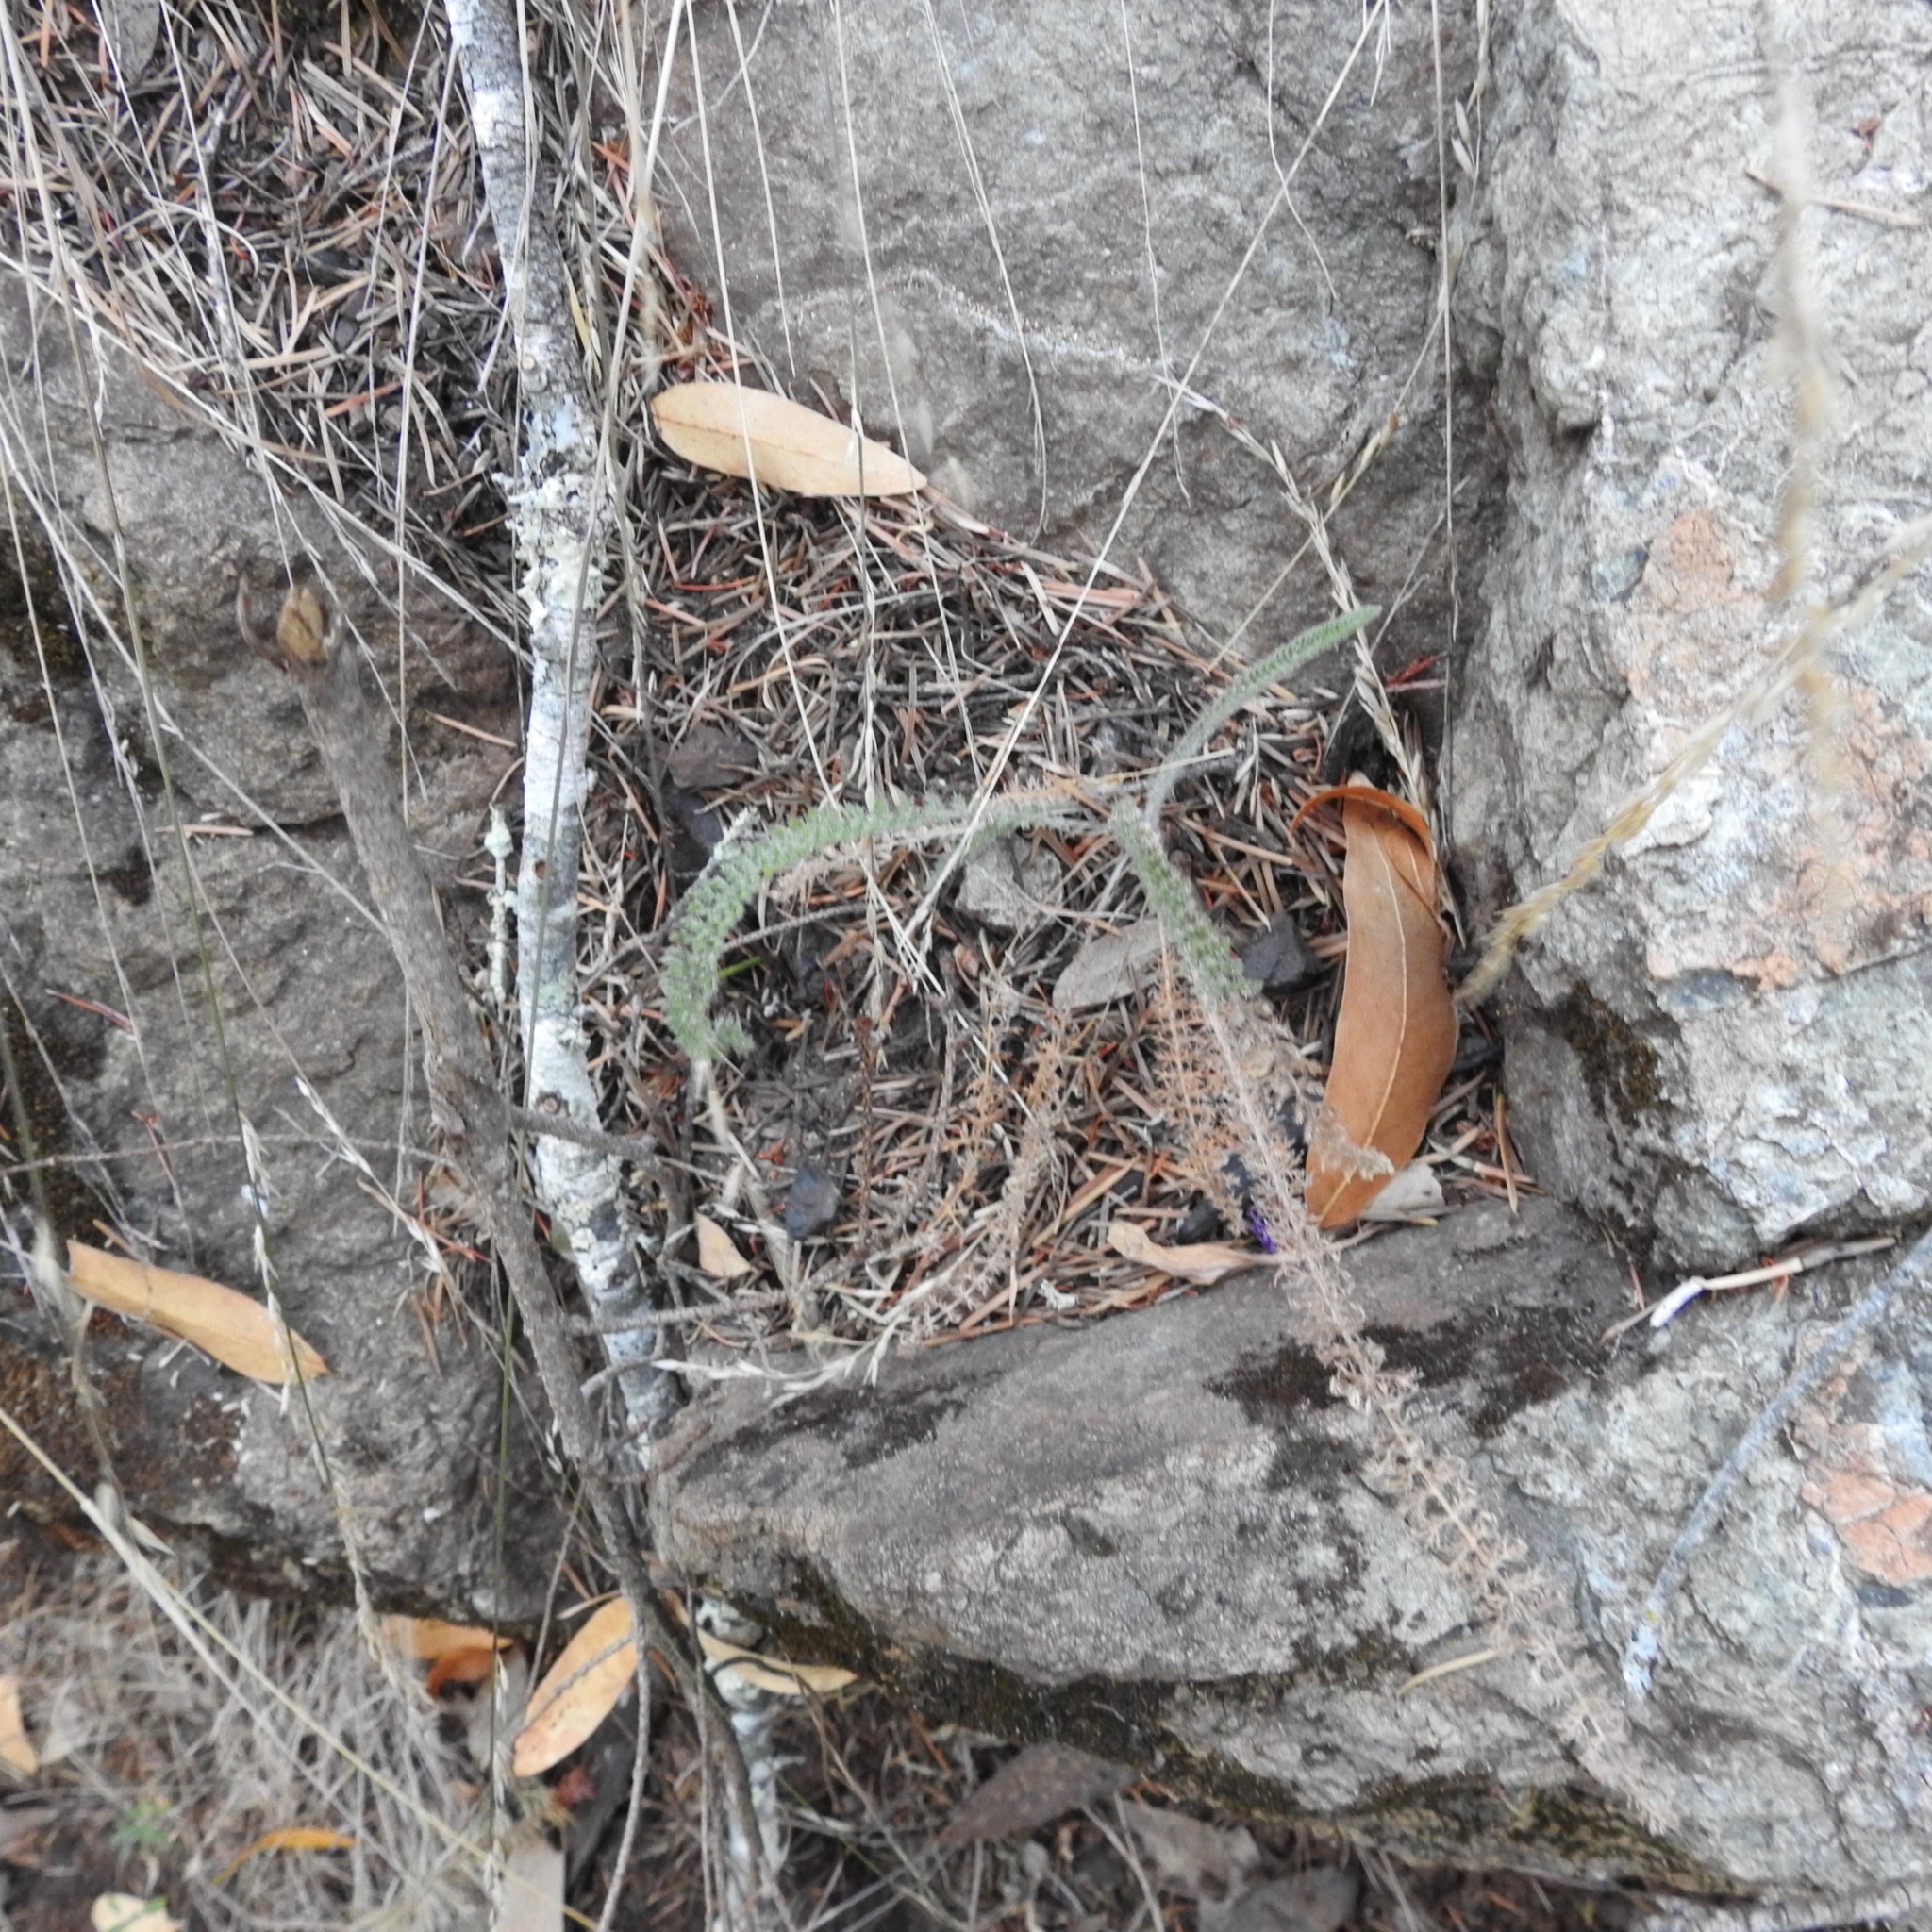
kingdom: Plantae
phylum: Tracheophyta
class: Magnoliopsida
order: Asterales
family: Asteraceae
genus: Achillea
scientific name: Achillea millefolium
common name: Yarrow
